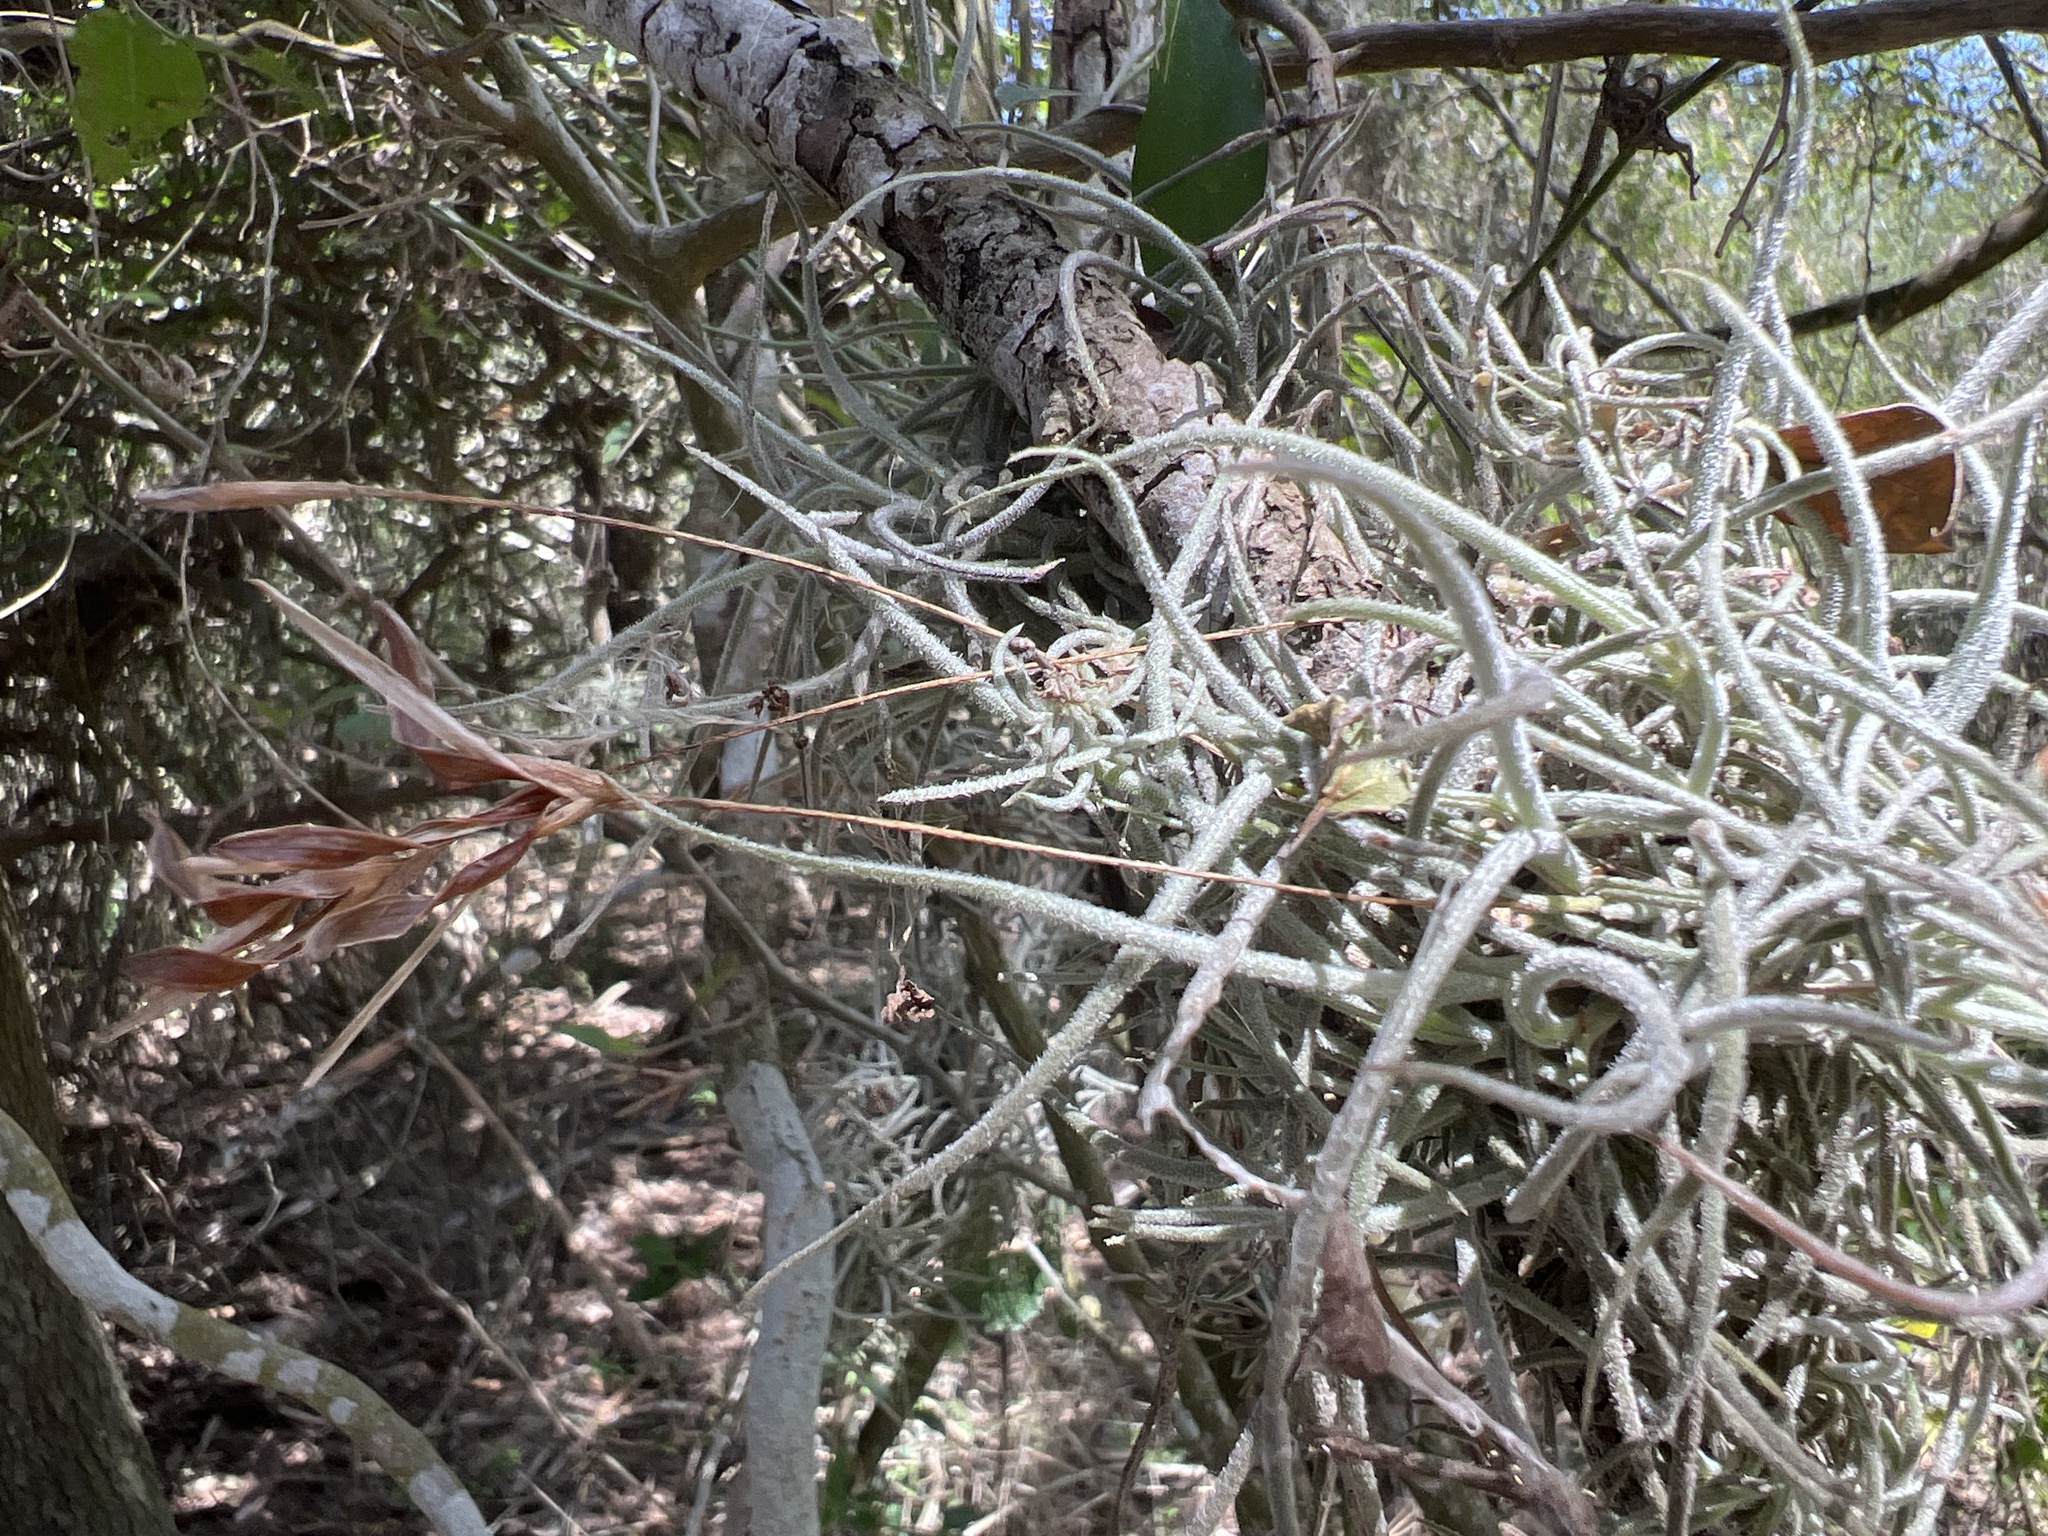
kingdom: Plantae
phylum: Tracheophyta
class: Liliopsida
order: Poales
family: Bromeliaceae
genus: Tillandsia
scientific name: Tillandsia recurvata
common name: Small ballmoss
